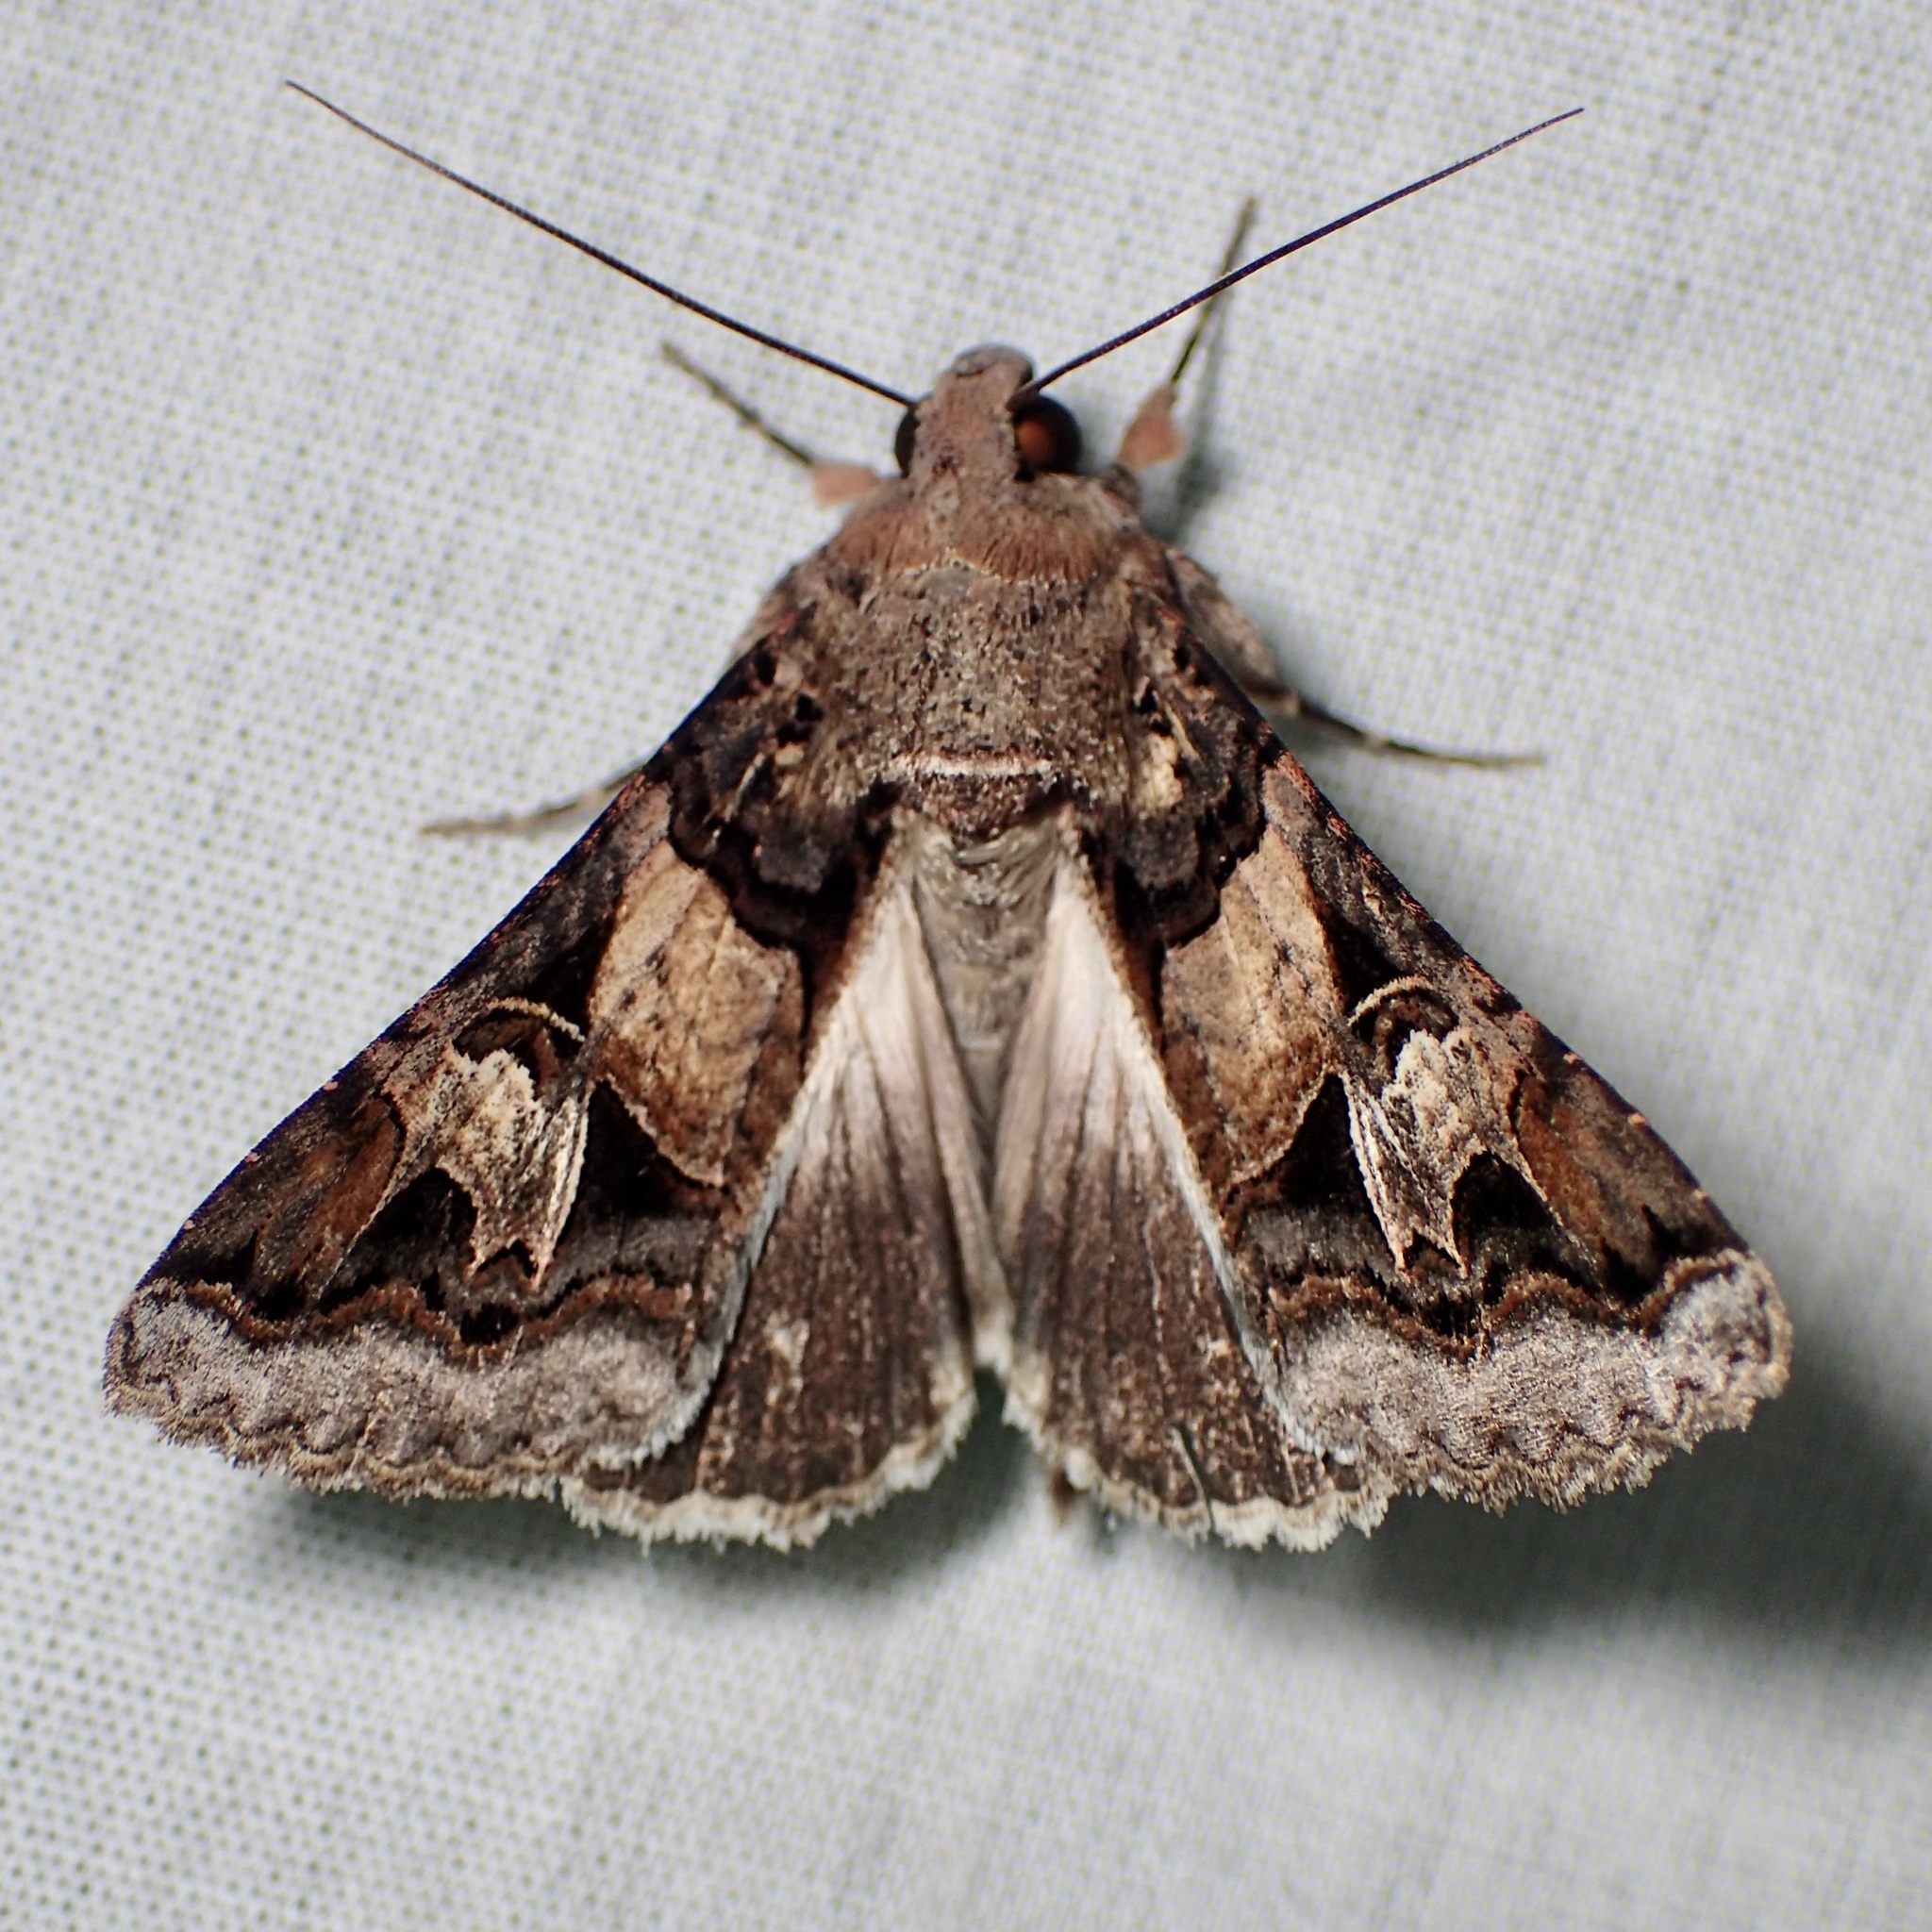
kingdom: Animalia
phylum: Arthropoda
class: Insecta
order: Lepidoptera
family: Erebidae
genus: Melipotis
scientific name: Melipotis novanda
